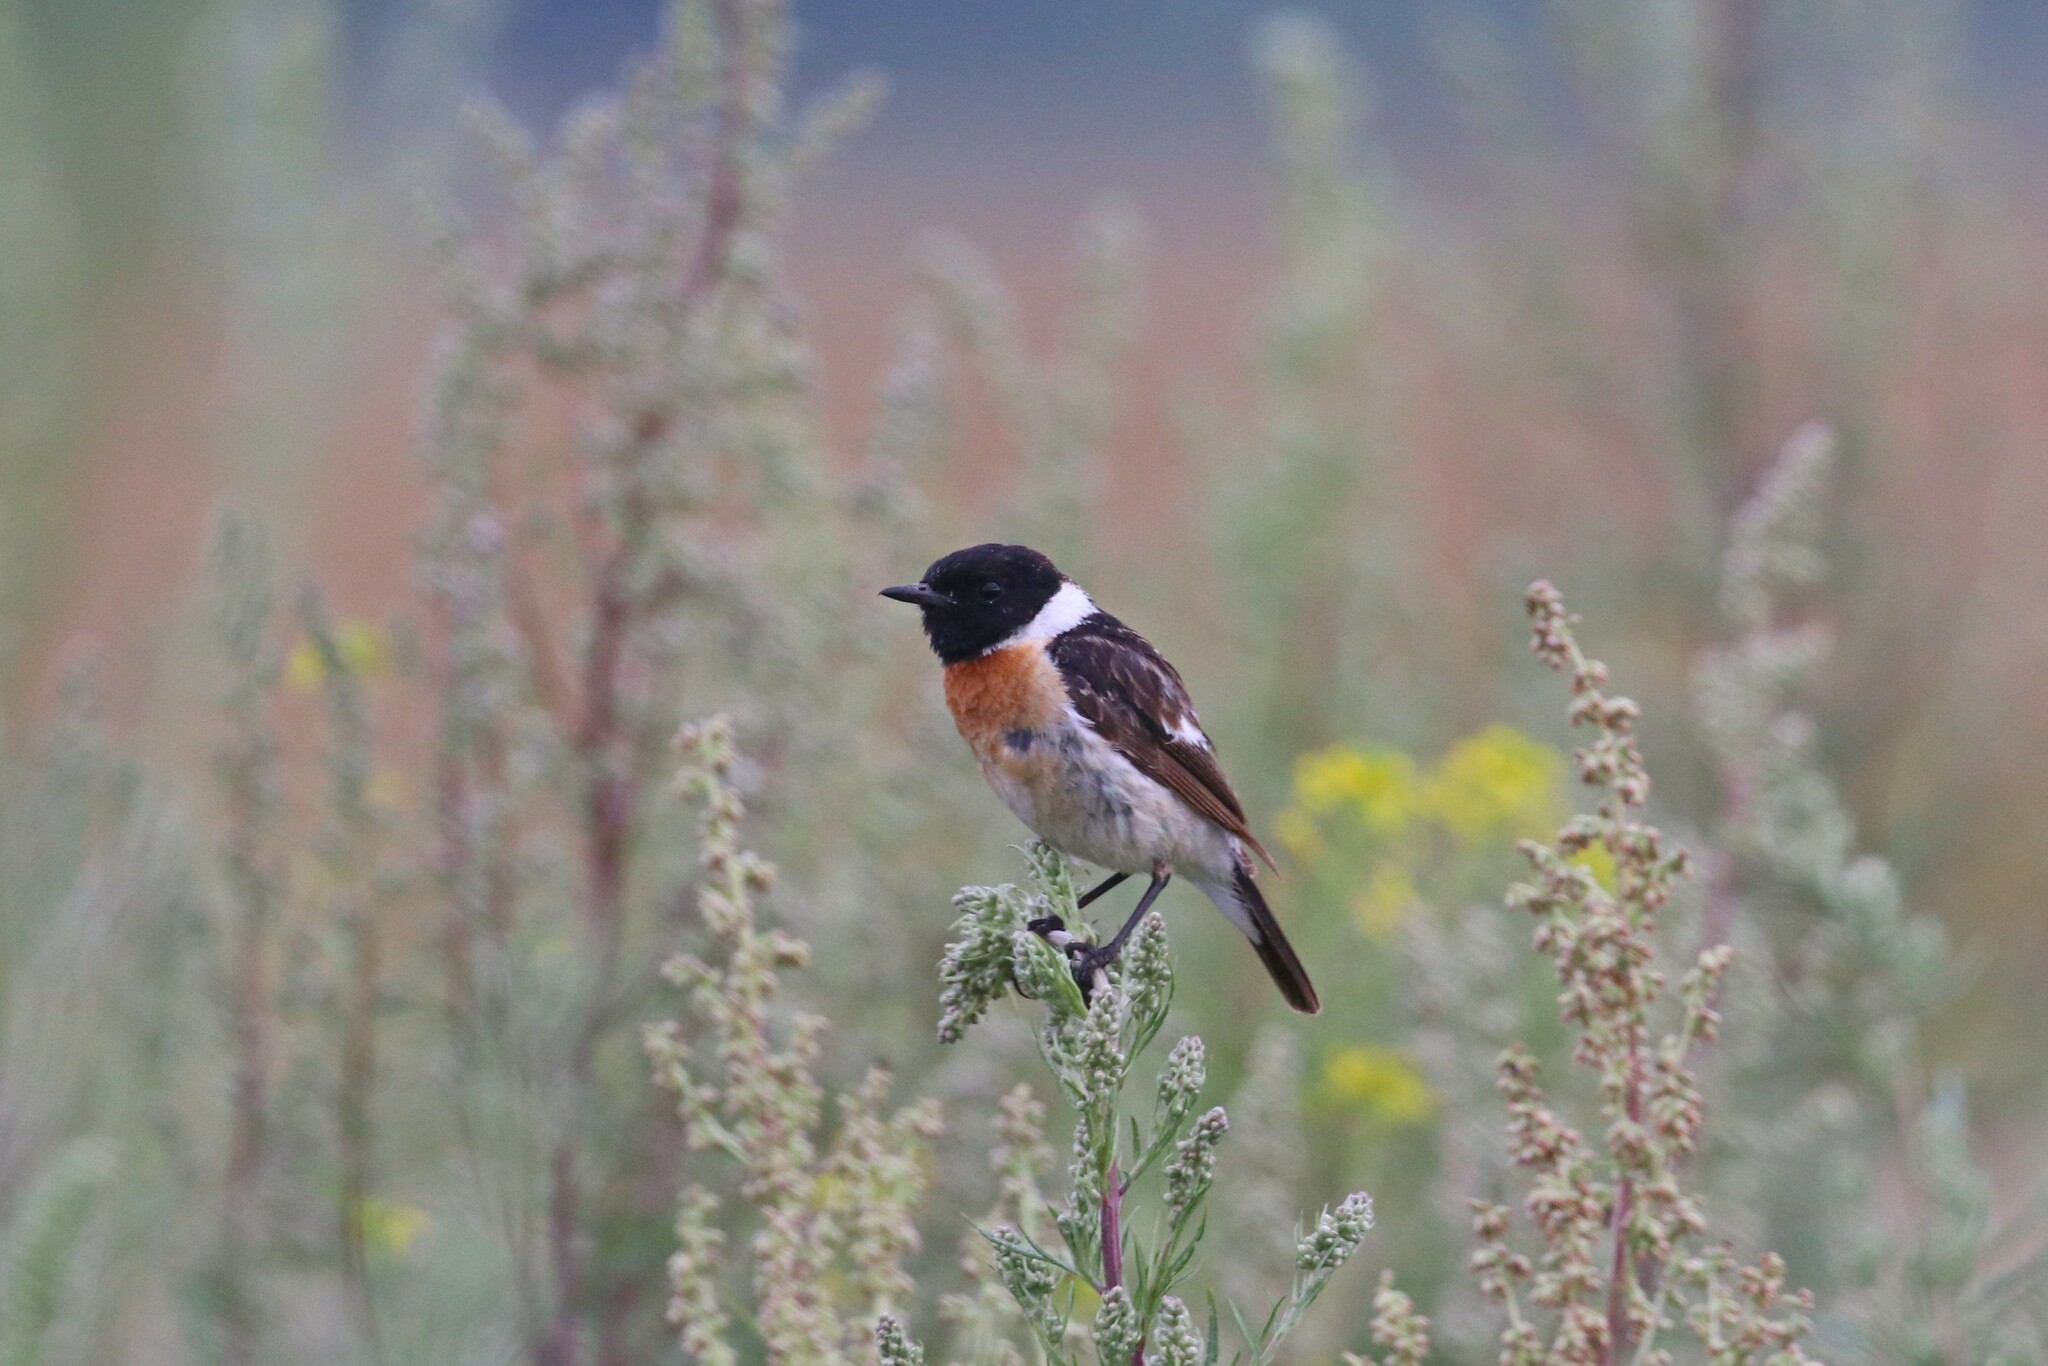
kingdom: Animalia
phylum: Chordata
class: Aves
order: Passeriformes
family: Muscicapidae
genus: Saxicola
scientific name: Saxicola maurus
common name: Siberian stonechat
